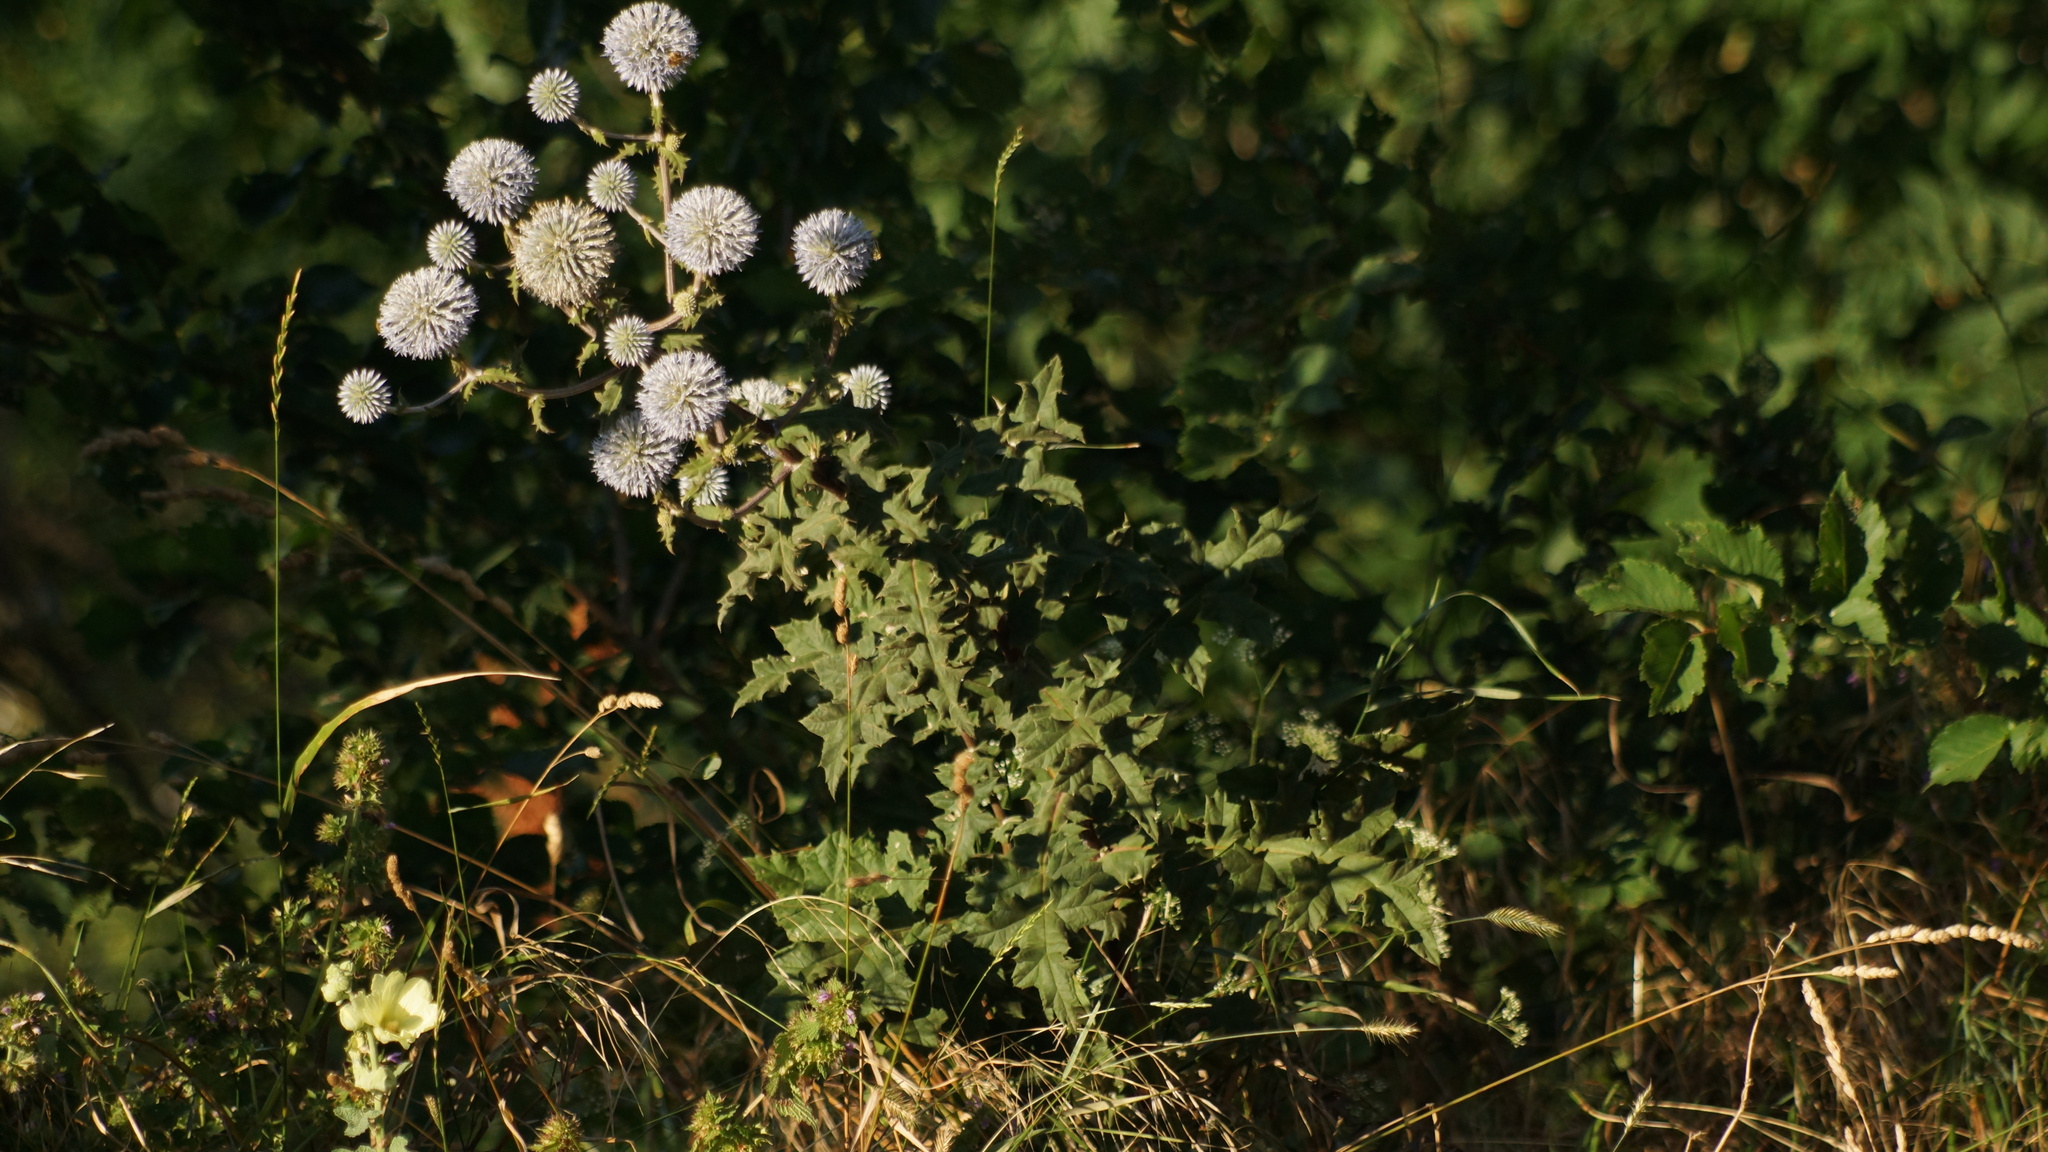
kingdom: Plantae
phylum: Tracheophyta
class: Magnoliopsida
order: Asterales
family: Asteraceae
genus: Echinops
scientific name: Echinops sphaerocephalus
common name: Glandular globe-thistle
